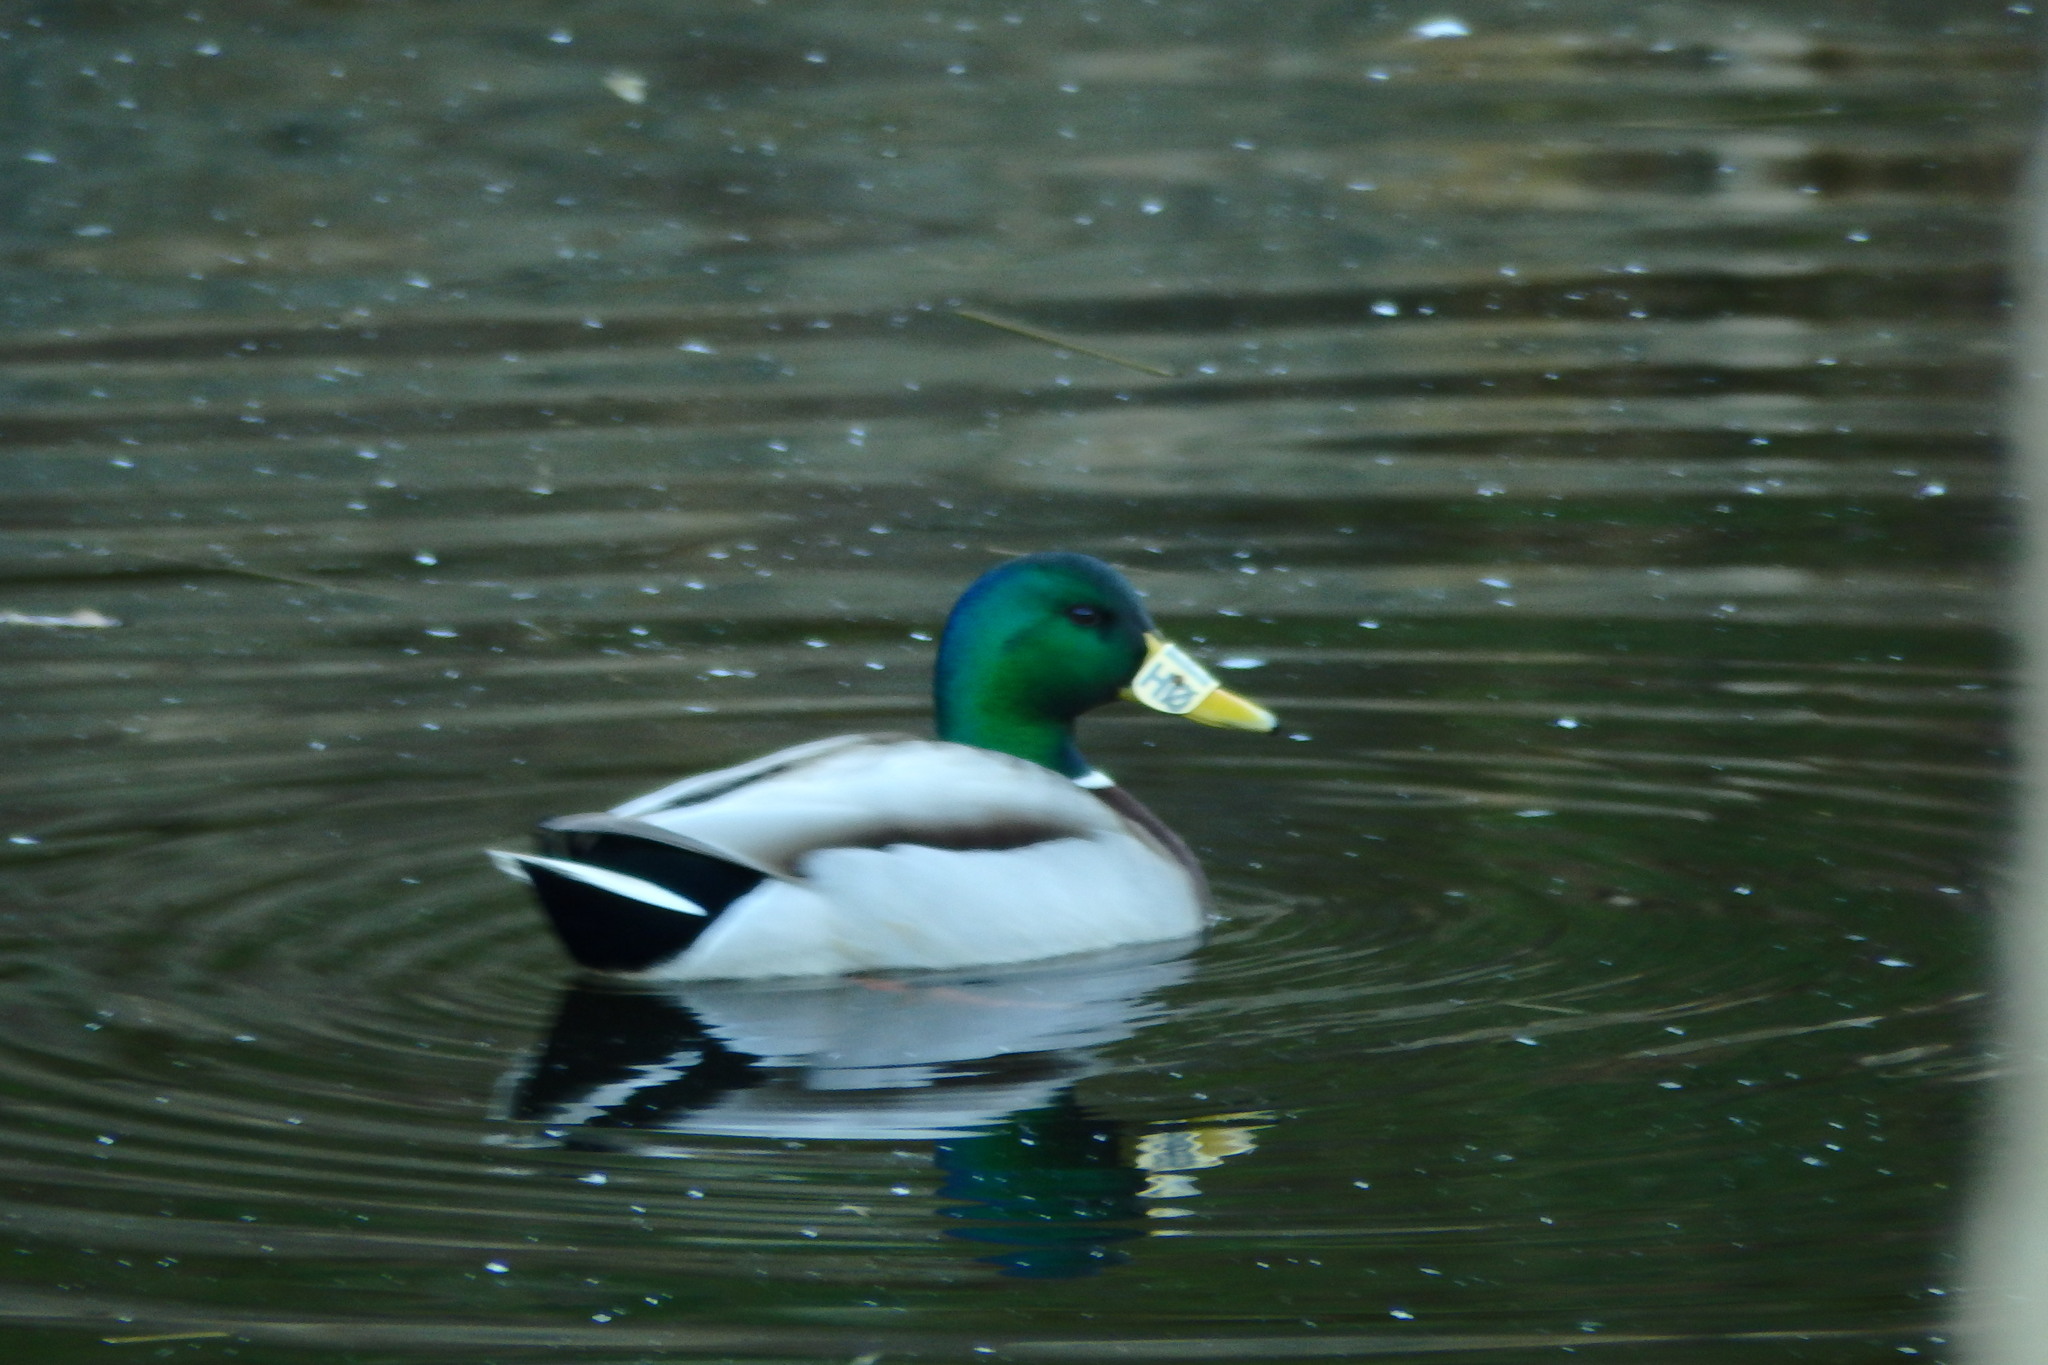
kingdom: Animalia
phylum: Chordata
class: Aves
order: Anseriformes
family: Anatidae
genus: Anas
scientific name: Anas platyrhynchos
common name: Mallard
